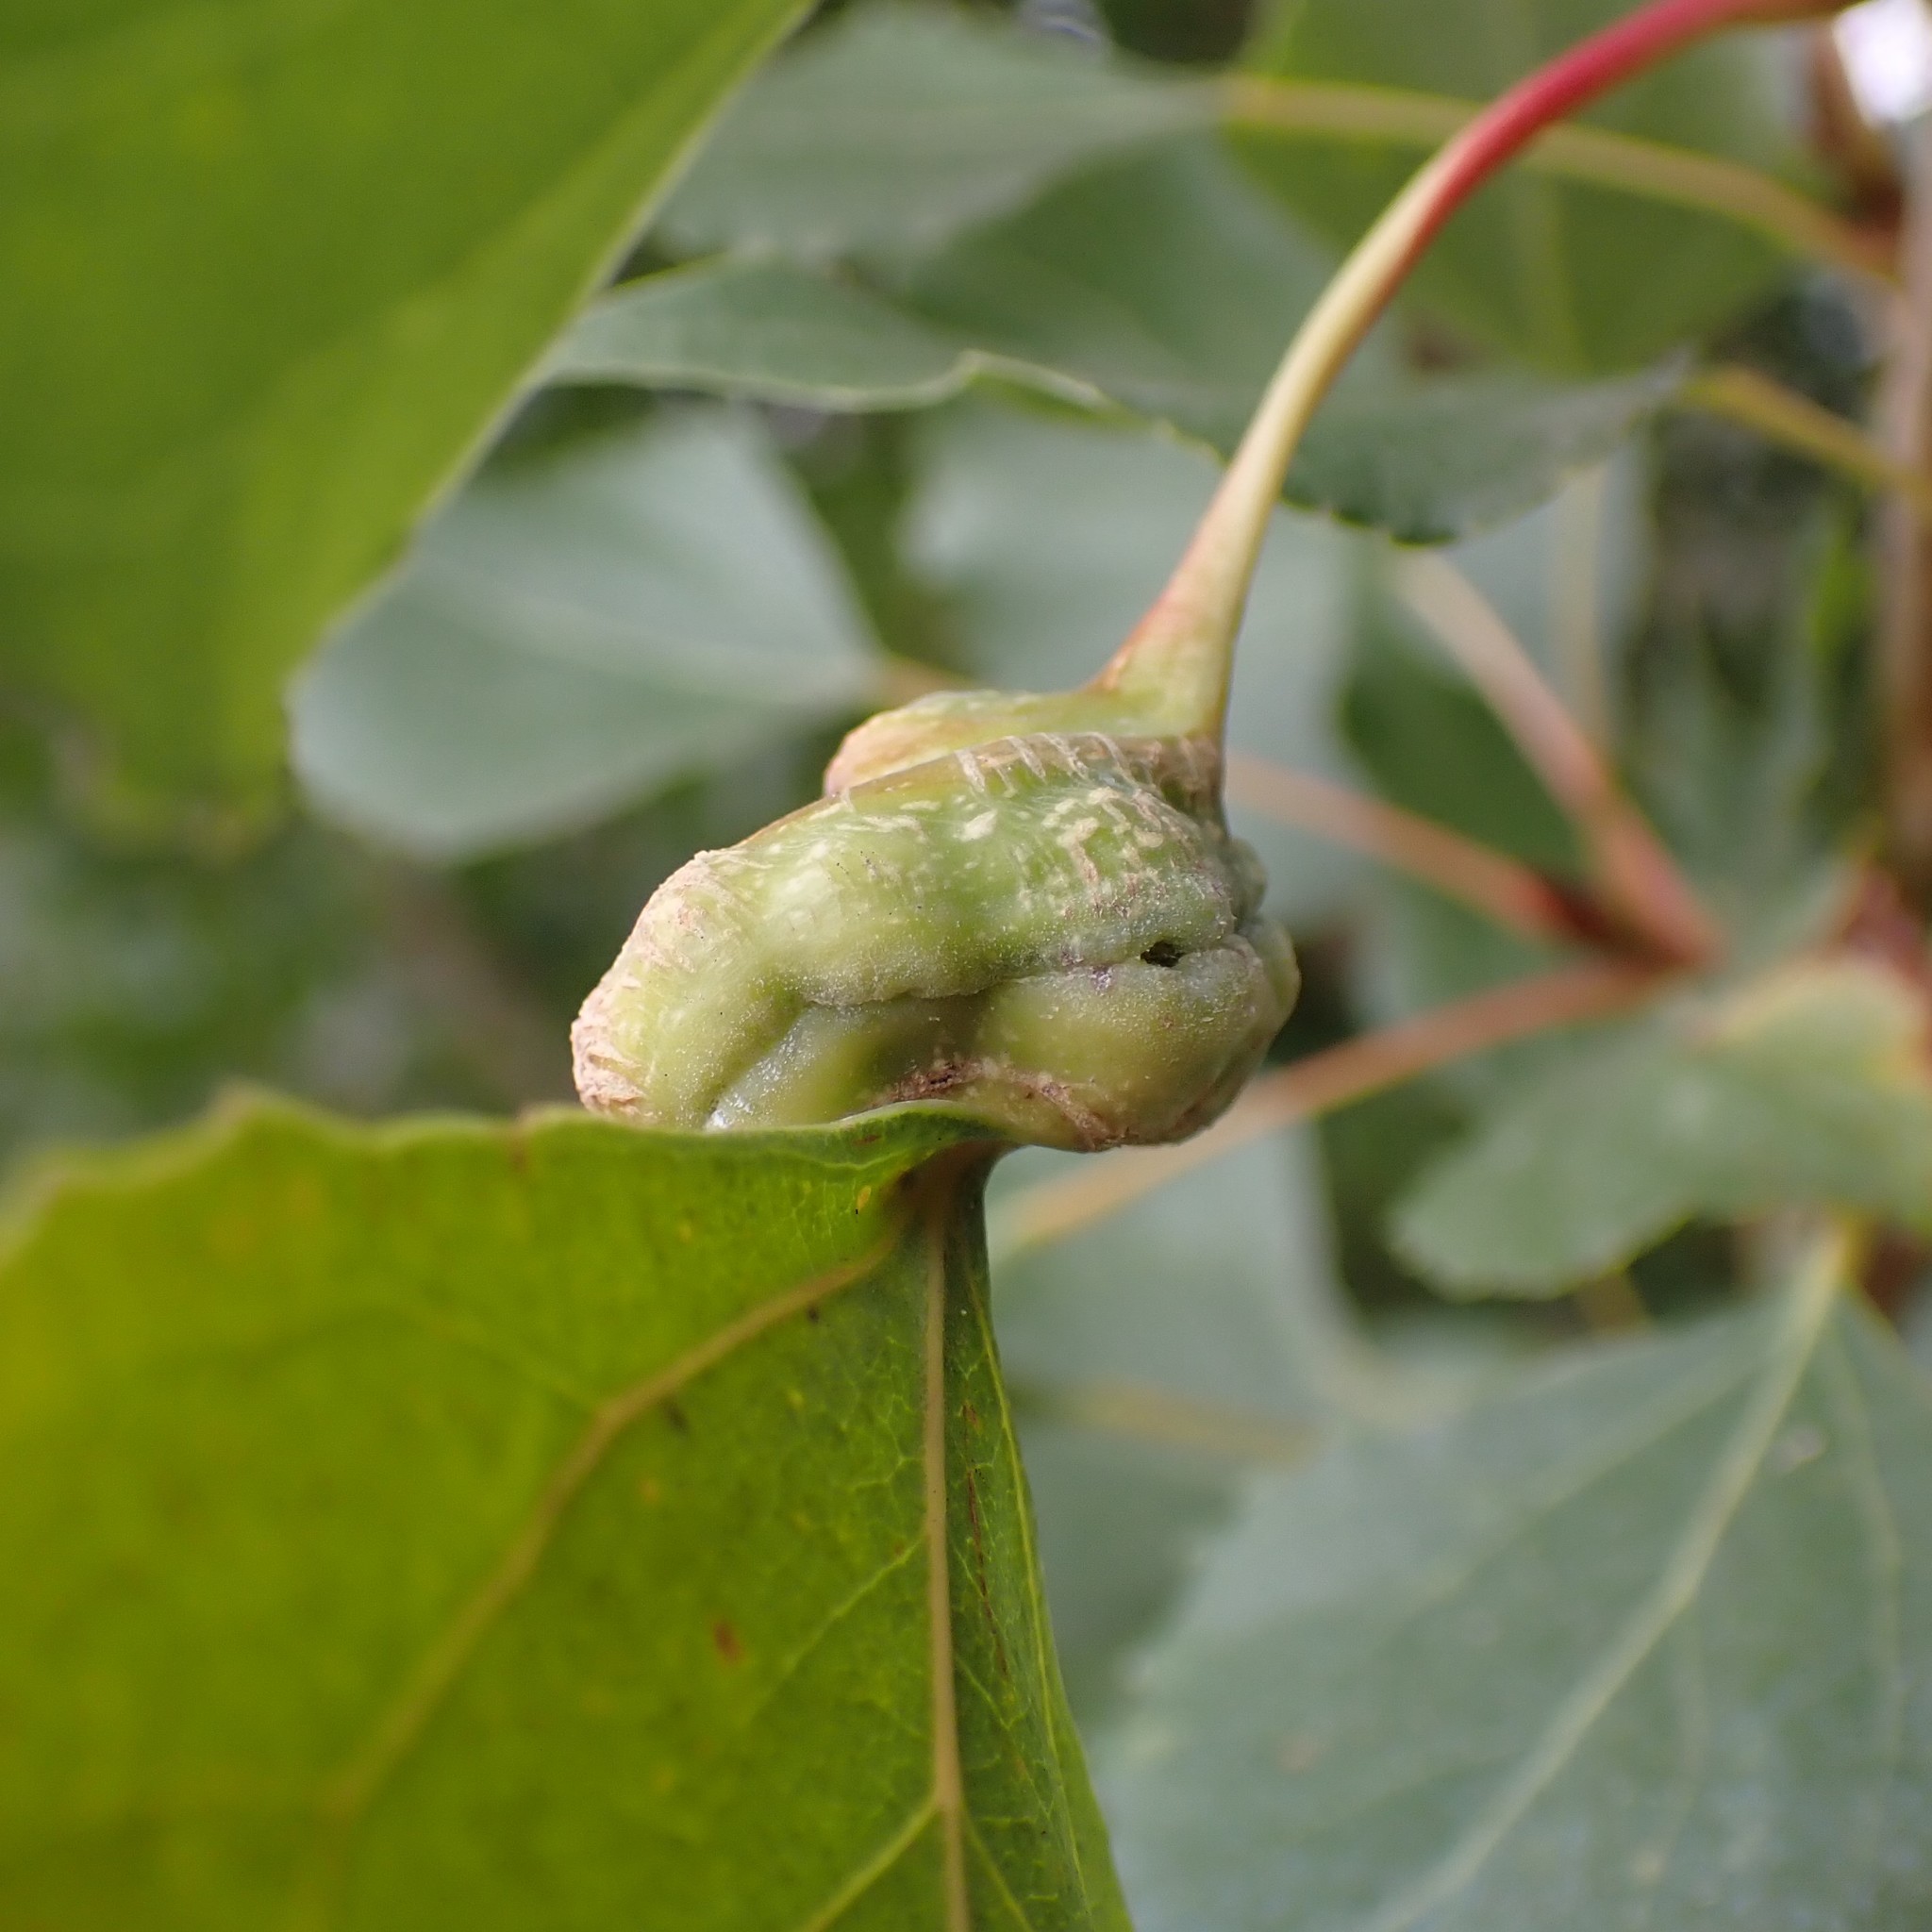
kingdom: Animalia
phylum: Arthropoda
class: Insecta
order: Hemiptera
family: Aphididae
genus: Pemphigus
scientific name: Pemphigus spyrothecae
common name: Aphid
